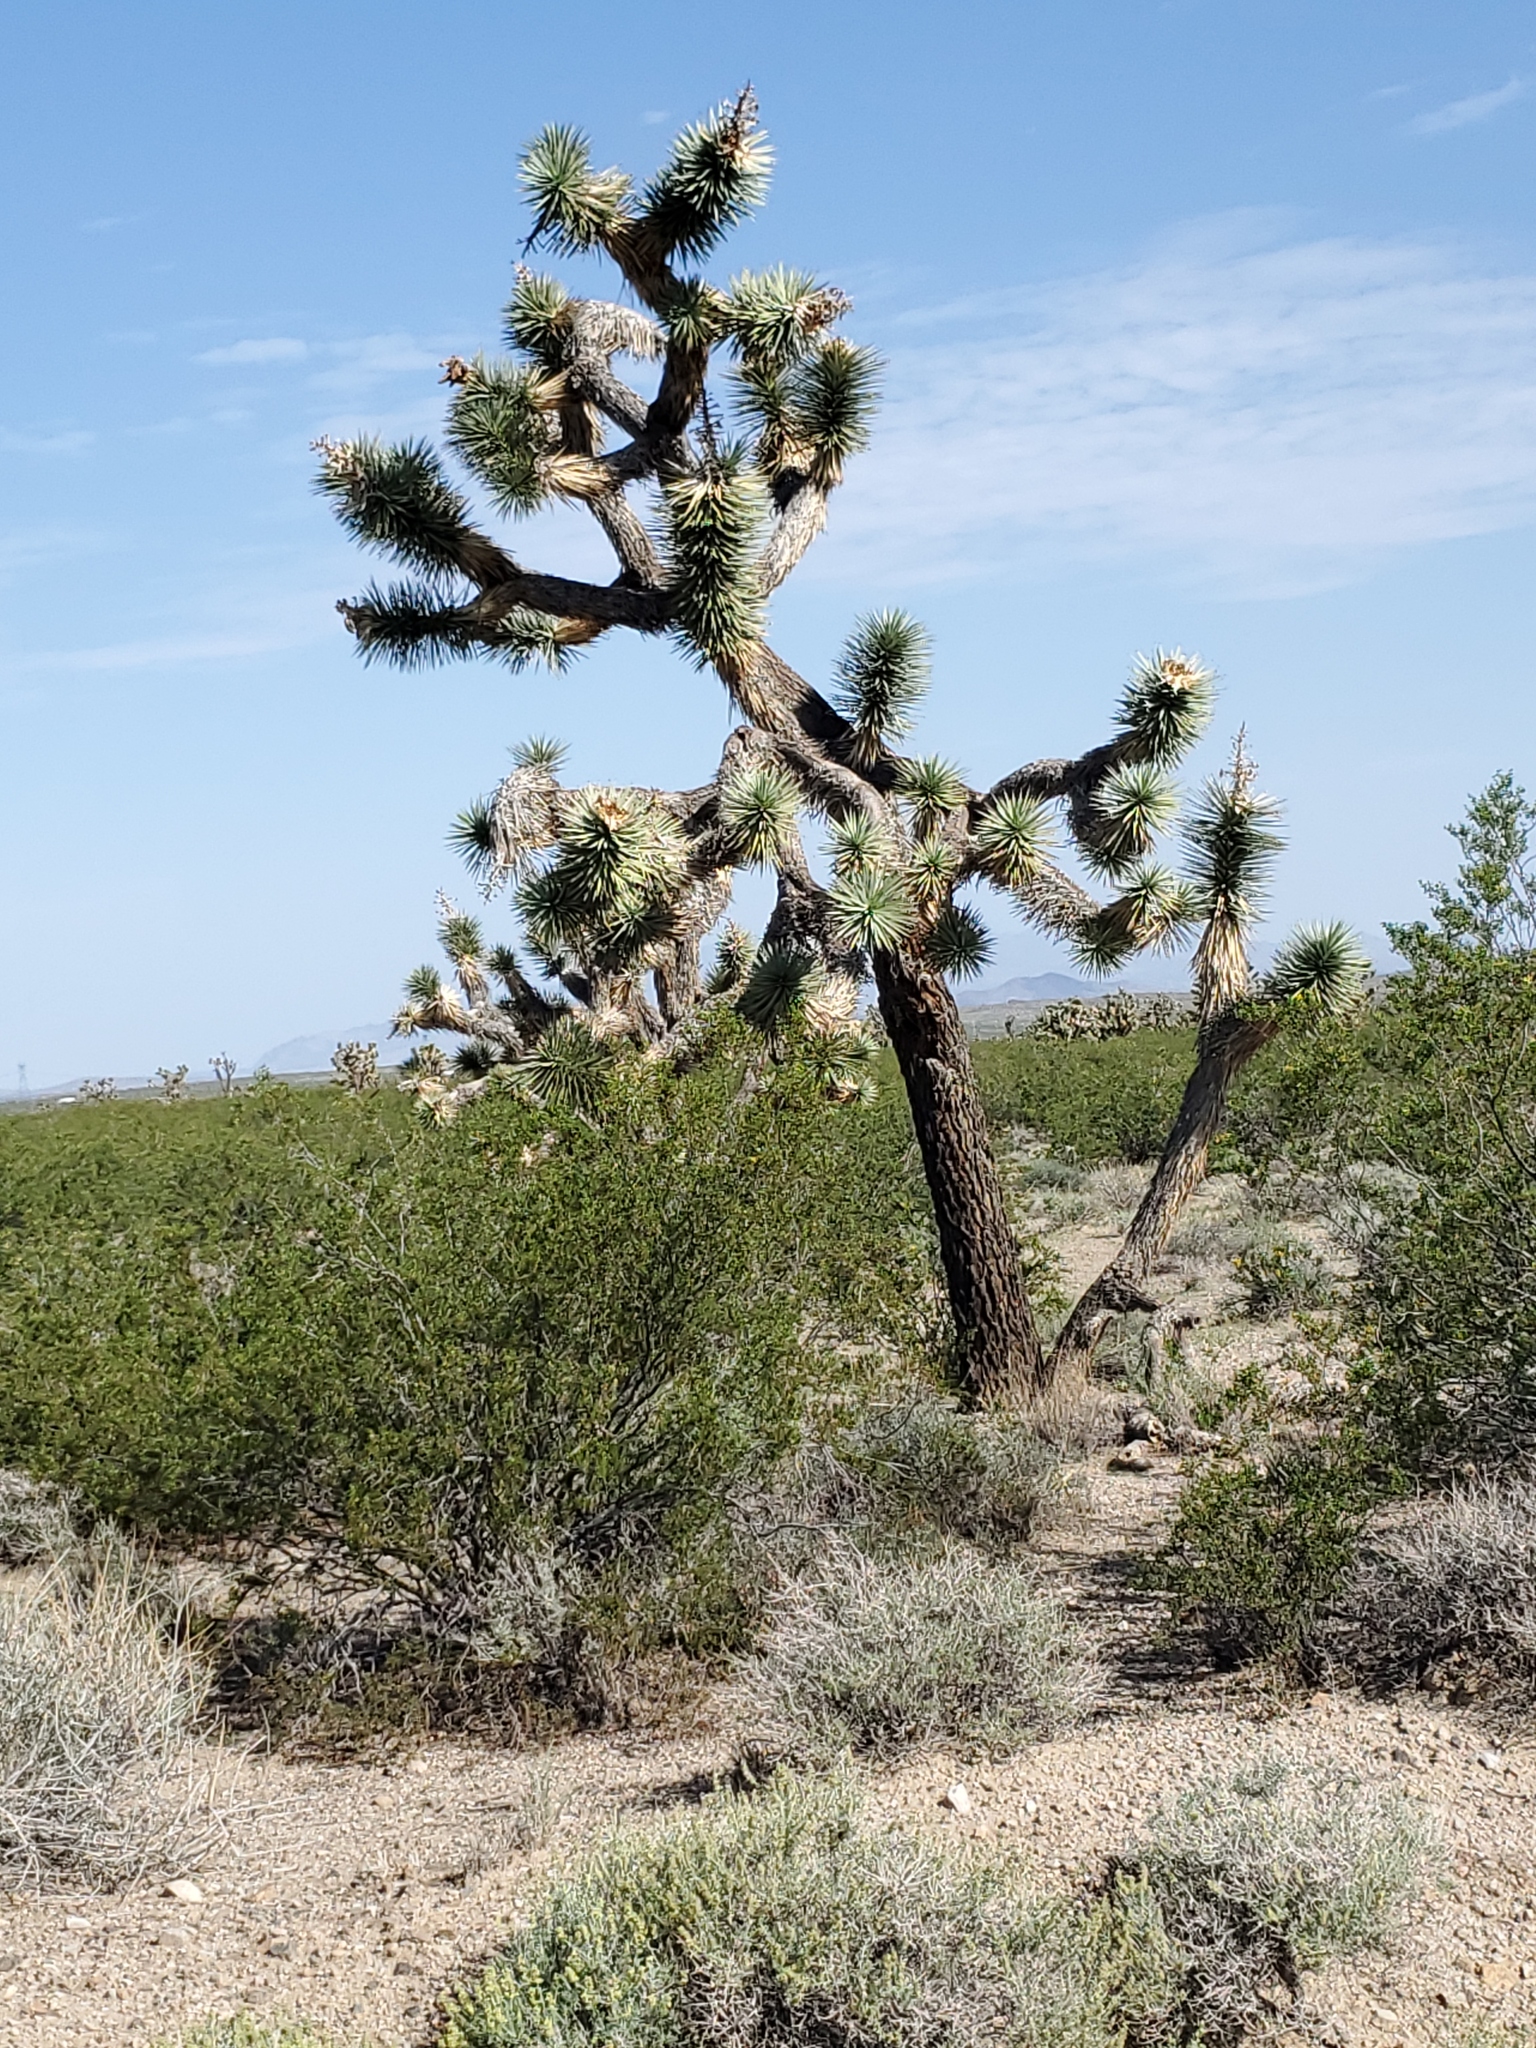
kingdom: Plantae
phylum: Tracheophyta
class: Liliopsida
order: Asparagales
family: Asparagaceae
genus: Yucca
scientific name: Yucca brevifolia
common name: Joshua tree
